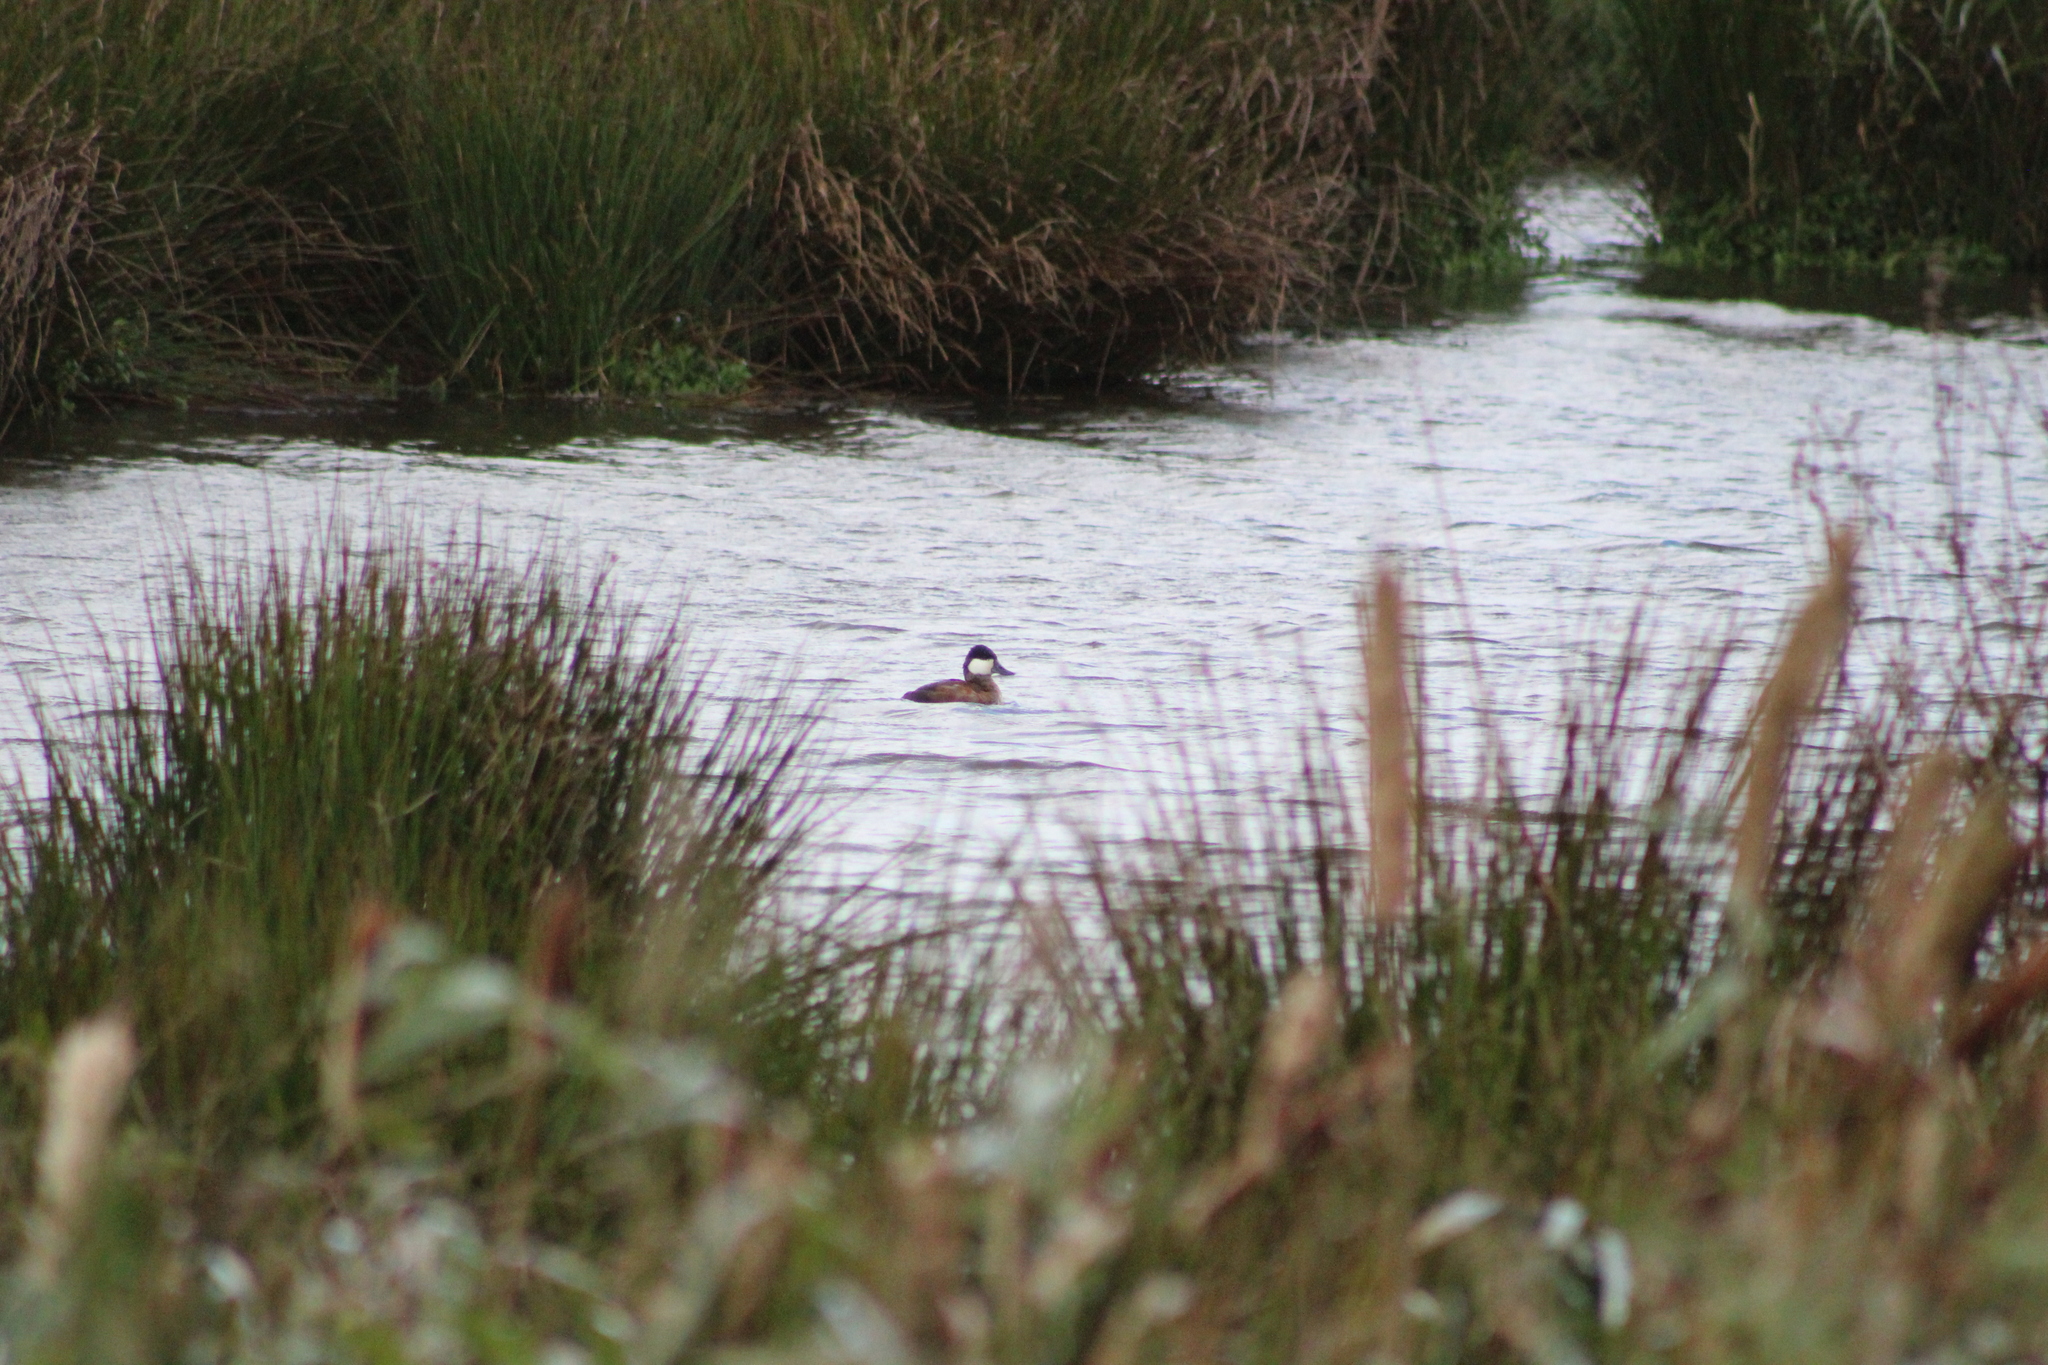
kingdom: Animalia
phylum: Chordata
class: Aves
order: Anseriformes
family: Anatidae
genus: Oxyura
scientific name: Oxyura jamaicensis
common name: Ruddy duck
